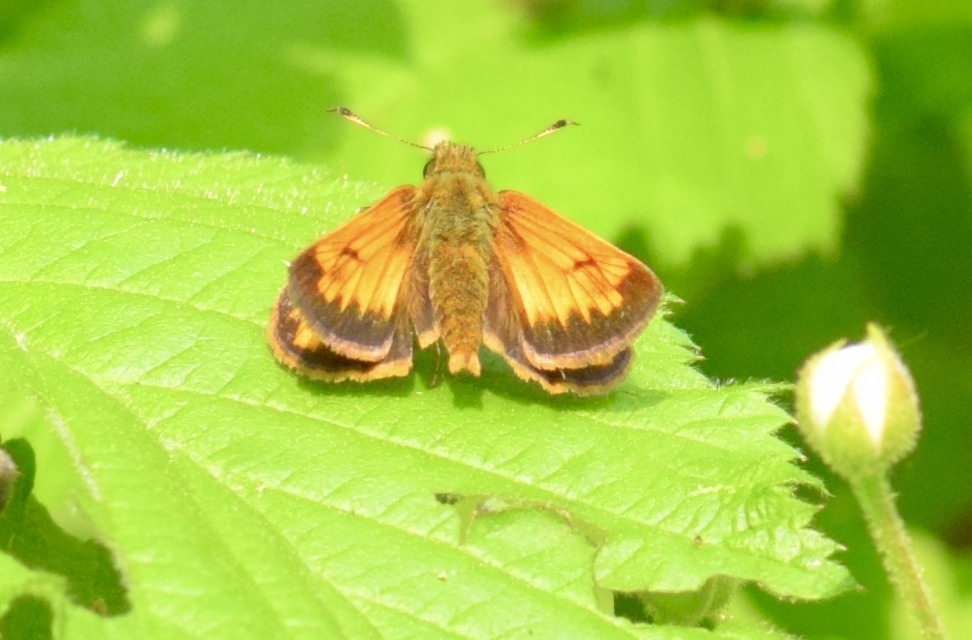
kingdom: Animalia
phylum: Arthropoda
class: Insecta
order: Lepidoptera
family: Hesperiidae
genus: Lon
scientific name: Lon hobomok
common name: Hobomok skipper
